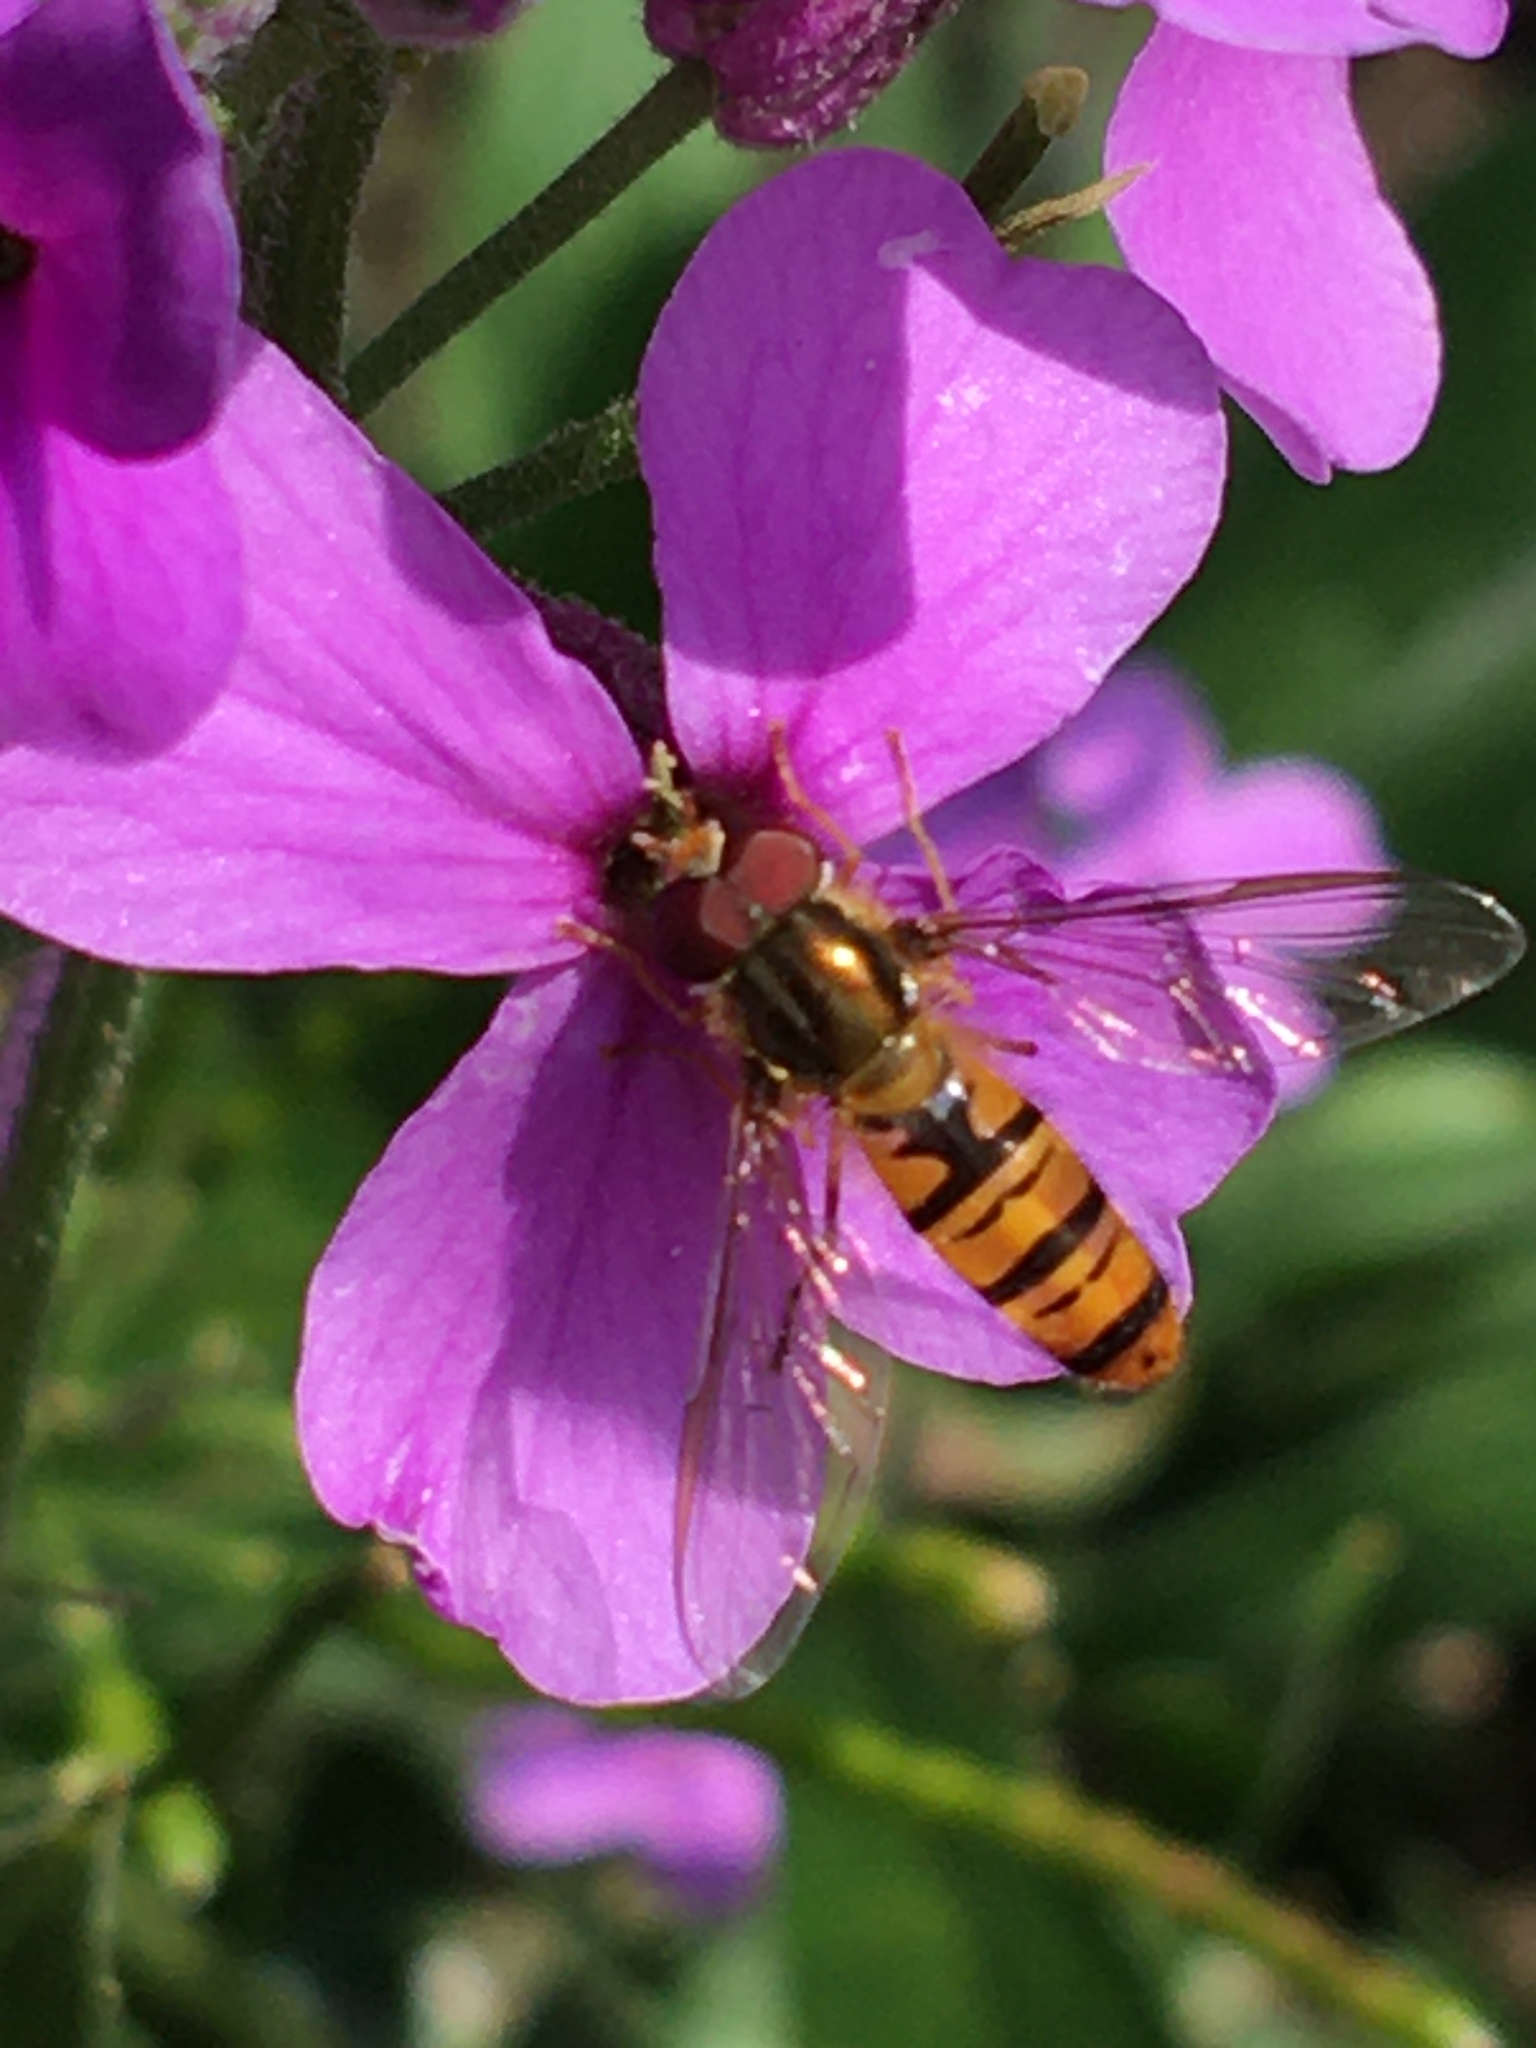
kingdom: Animalia
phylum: Arthropoda
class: Insecta
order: Diptera
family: Syrphidae
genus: Episyrphus
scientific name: Episyrphus balteatus
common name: Marmalade hoverfly
